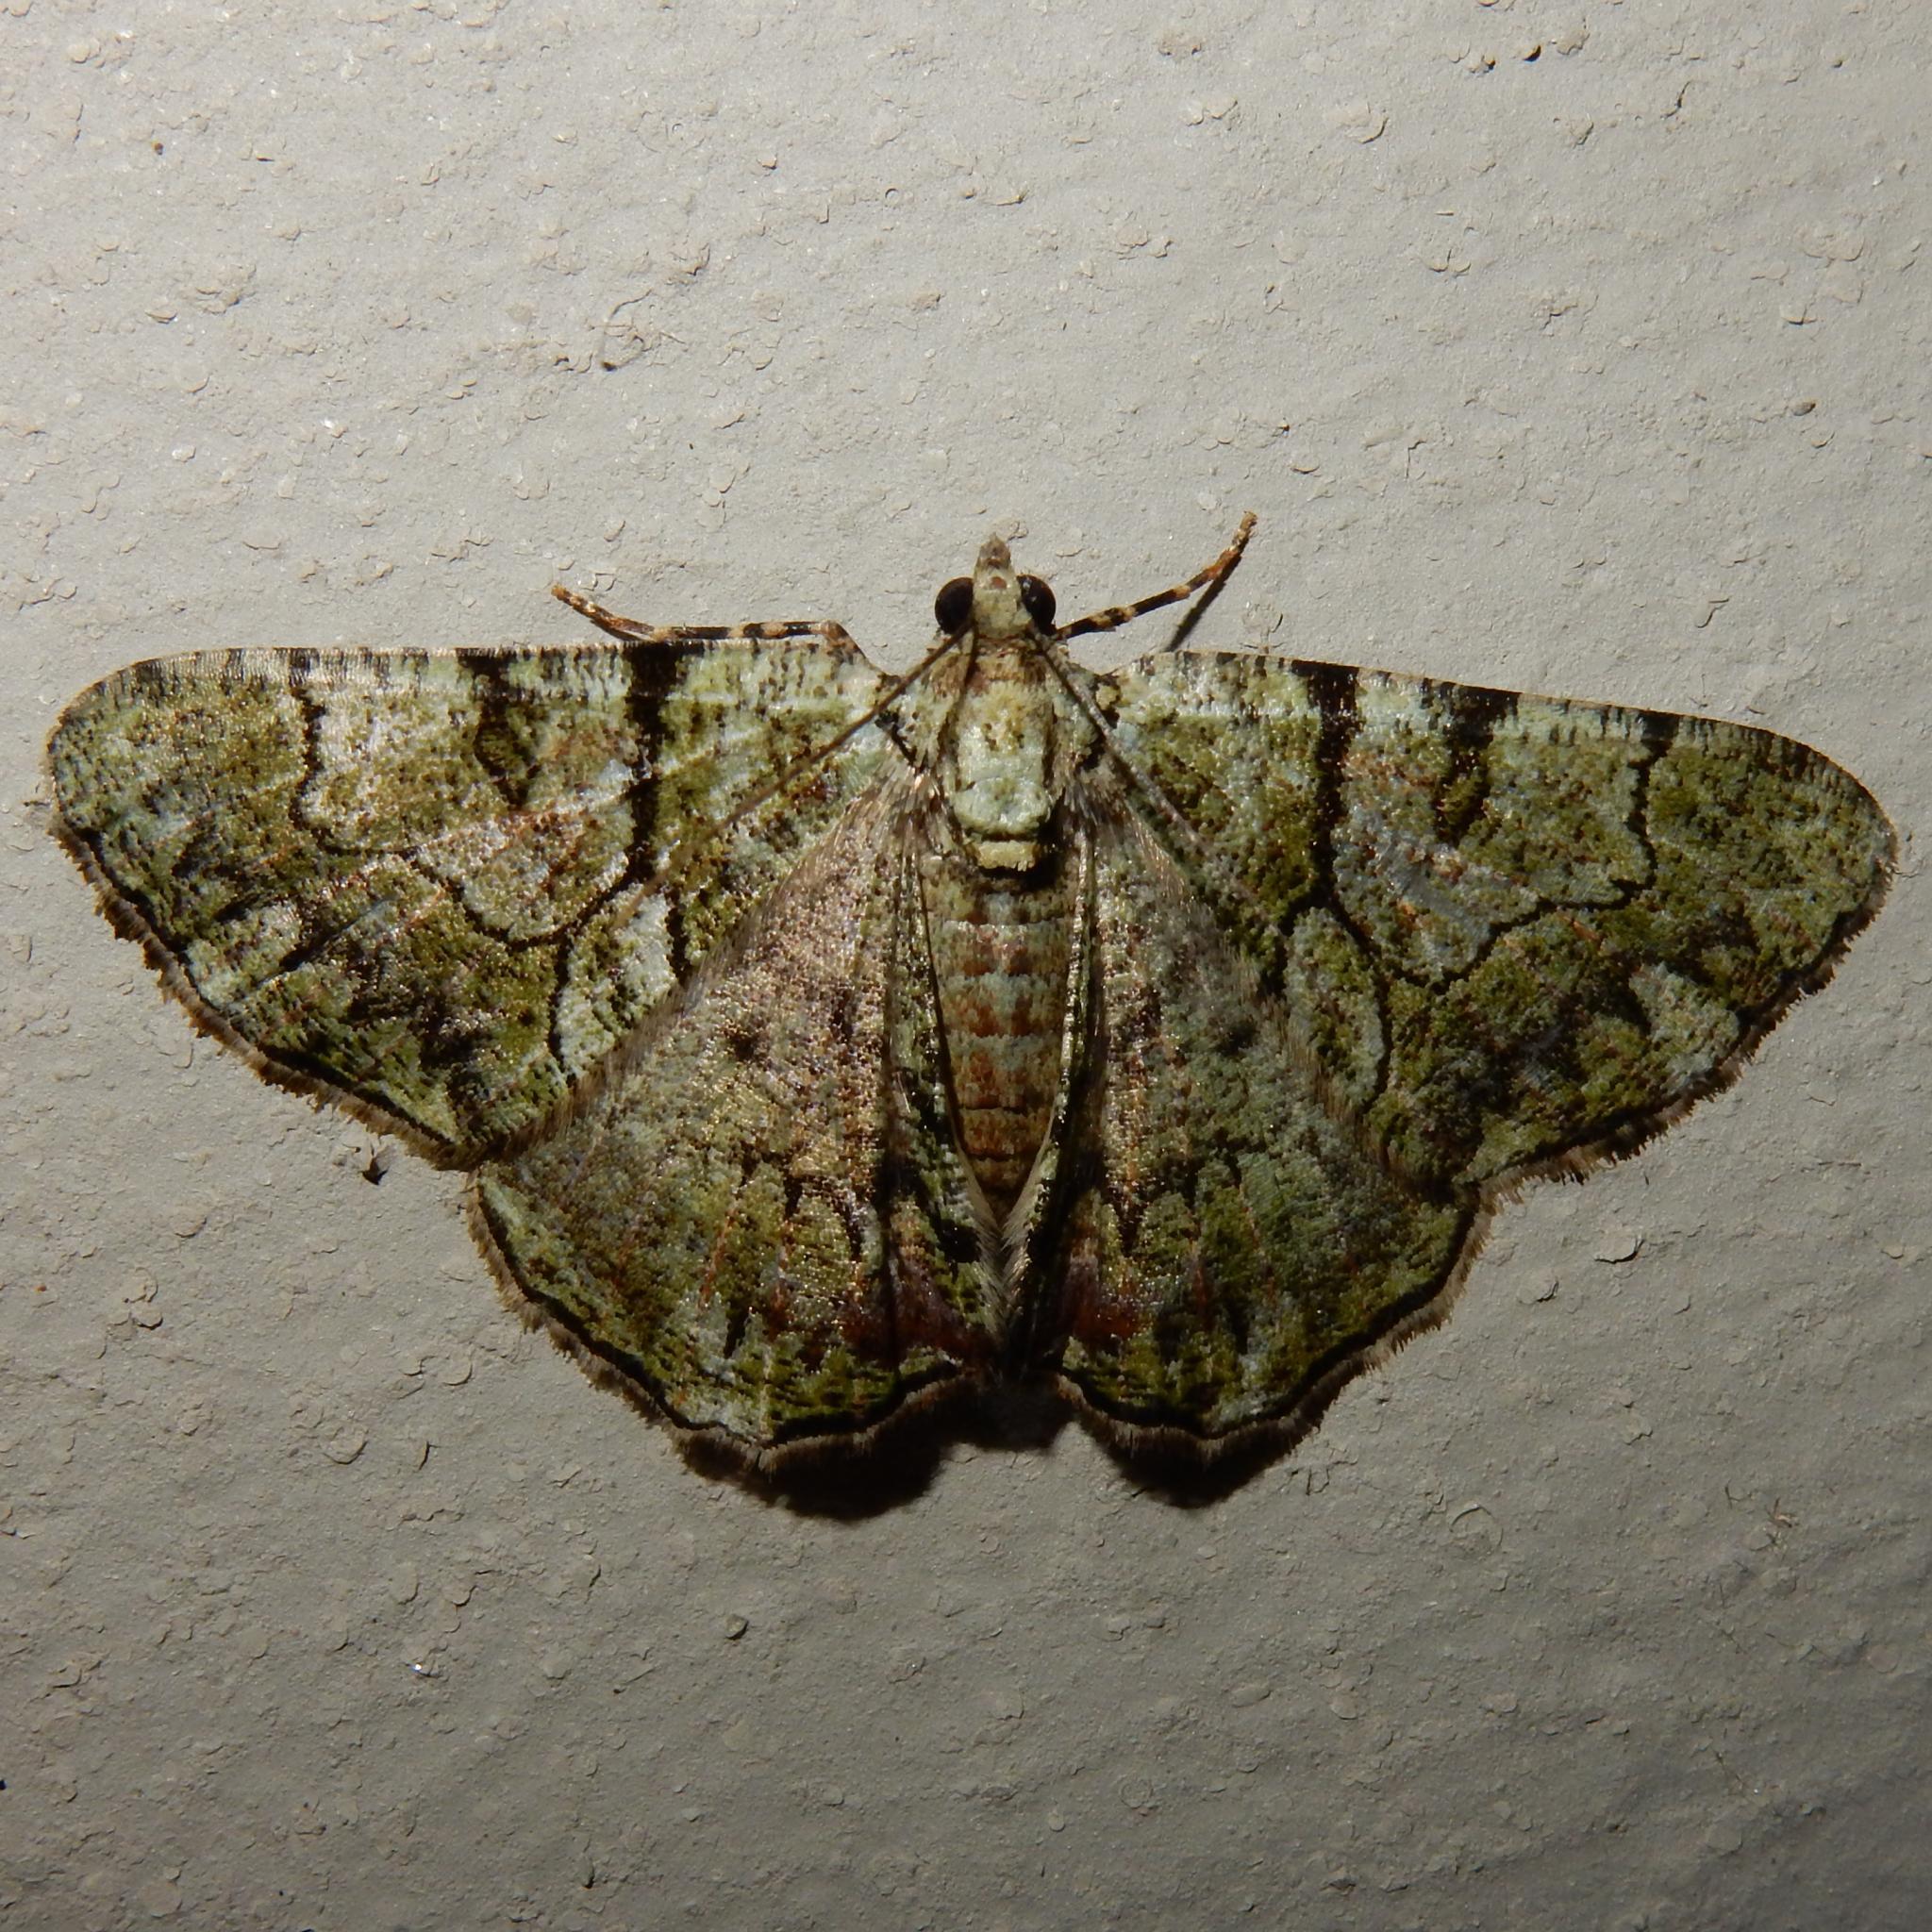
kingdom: Animalia
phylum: Arthropoda
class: Insecta
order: Lepidoptera
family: Geometridae
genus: Xylopteryx
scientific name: Xylopteryx prasinaria
